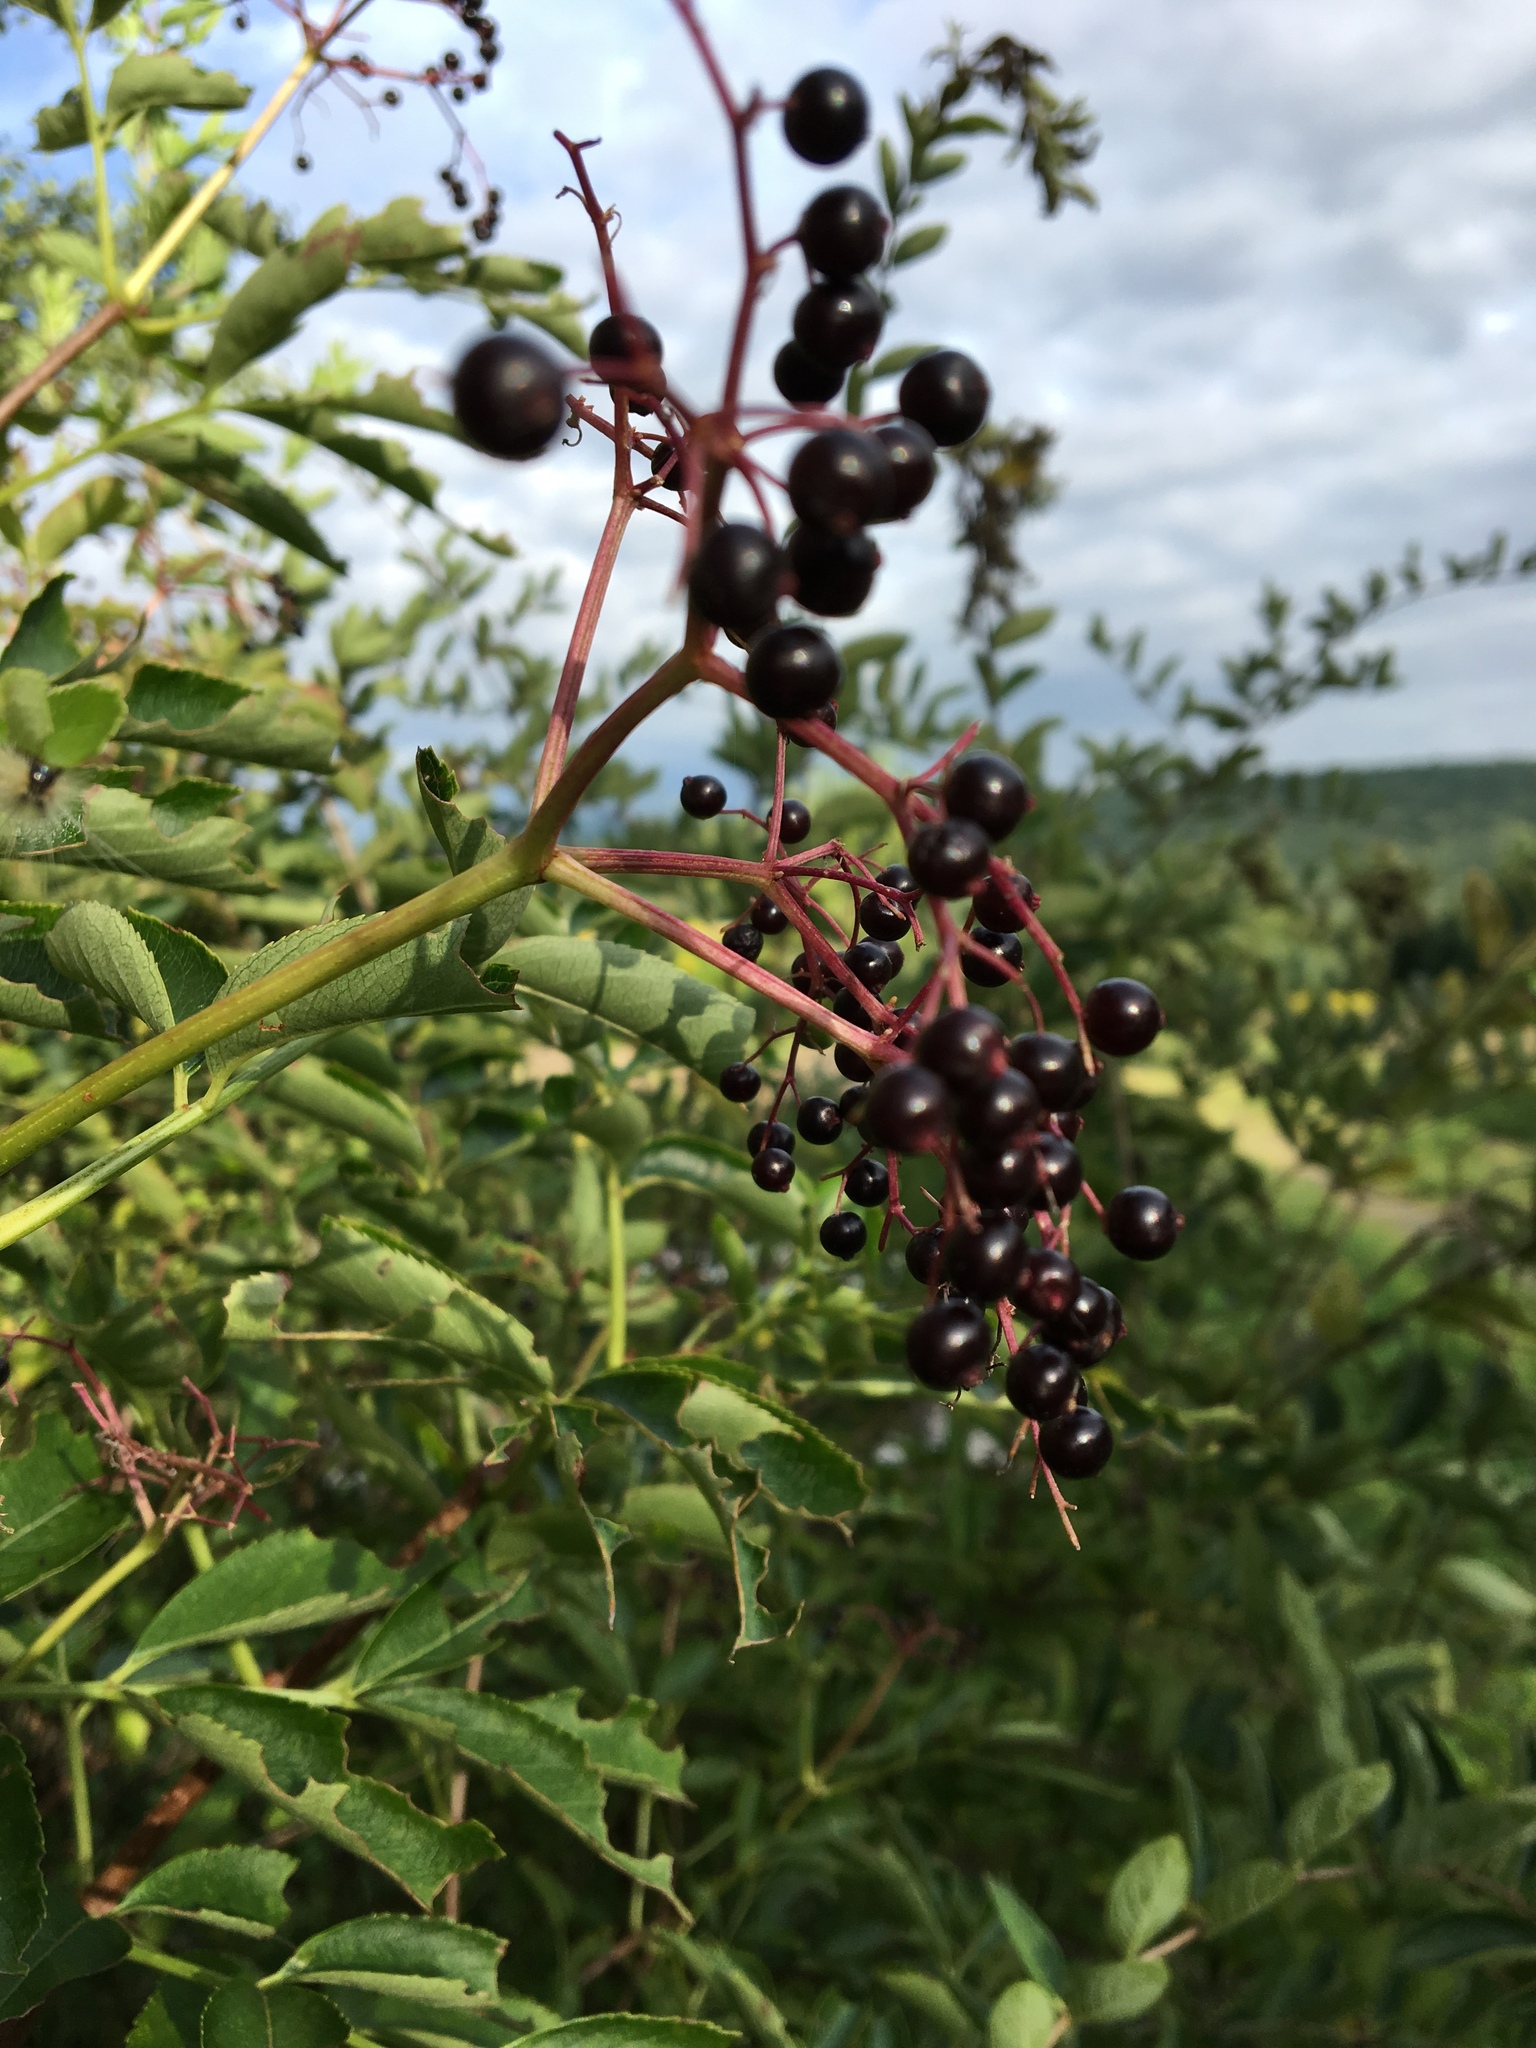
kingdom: Plantae
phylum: Tracheophyta
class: Magnoliopsida
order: Dipsacales
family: Viburnaceae
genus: Sambucus
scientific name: Sambucus canadensis
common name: American elder
